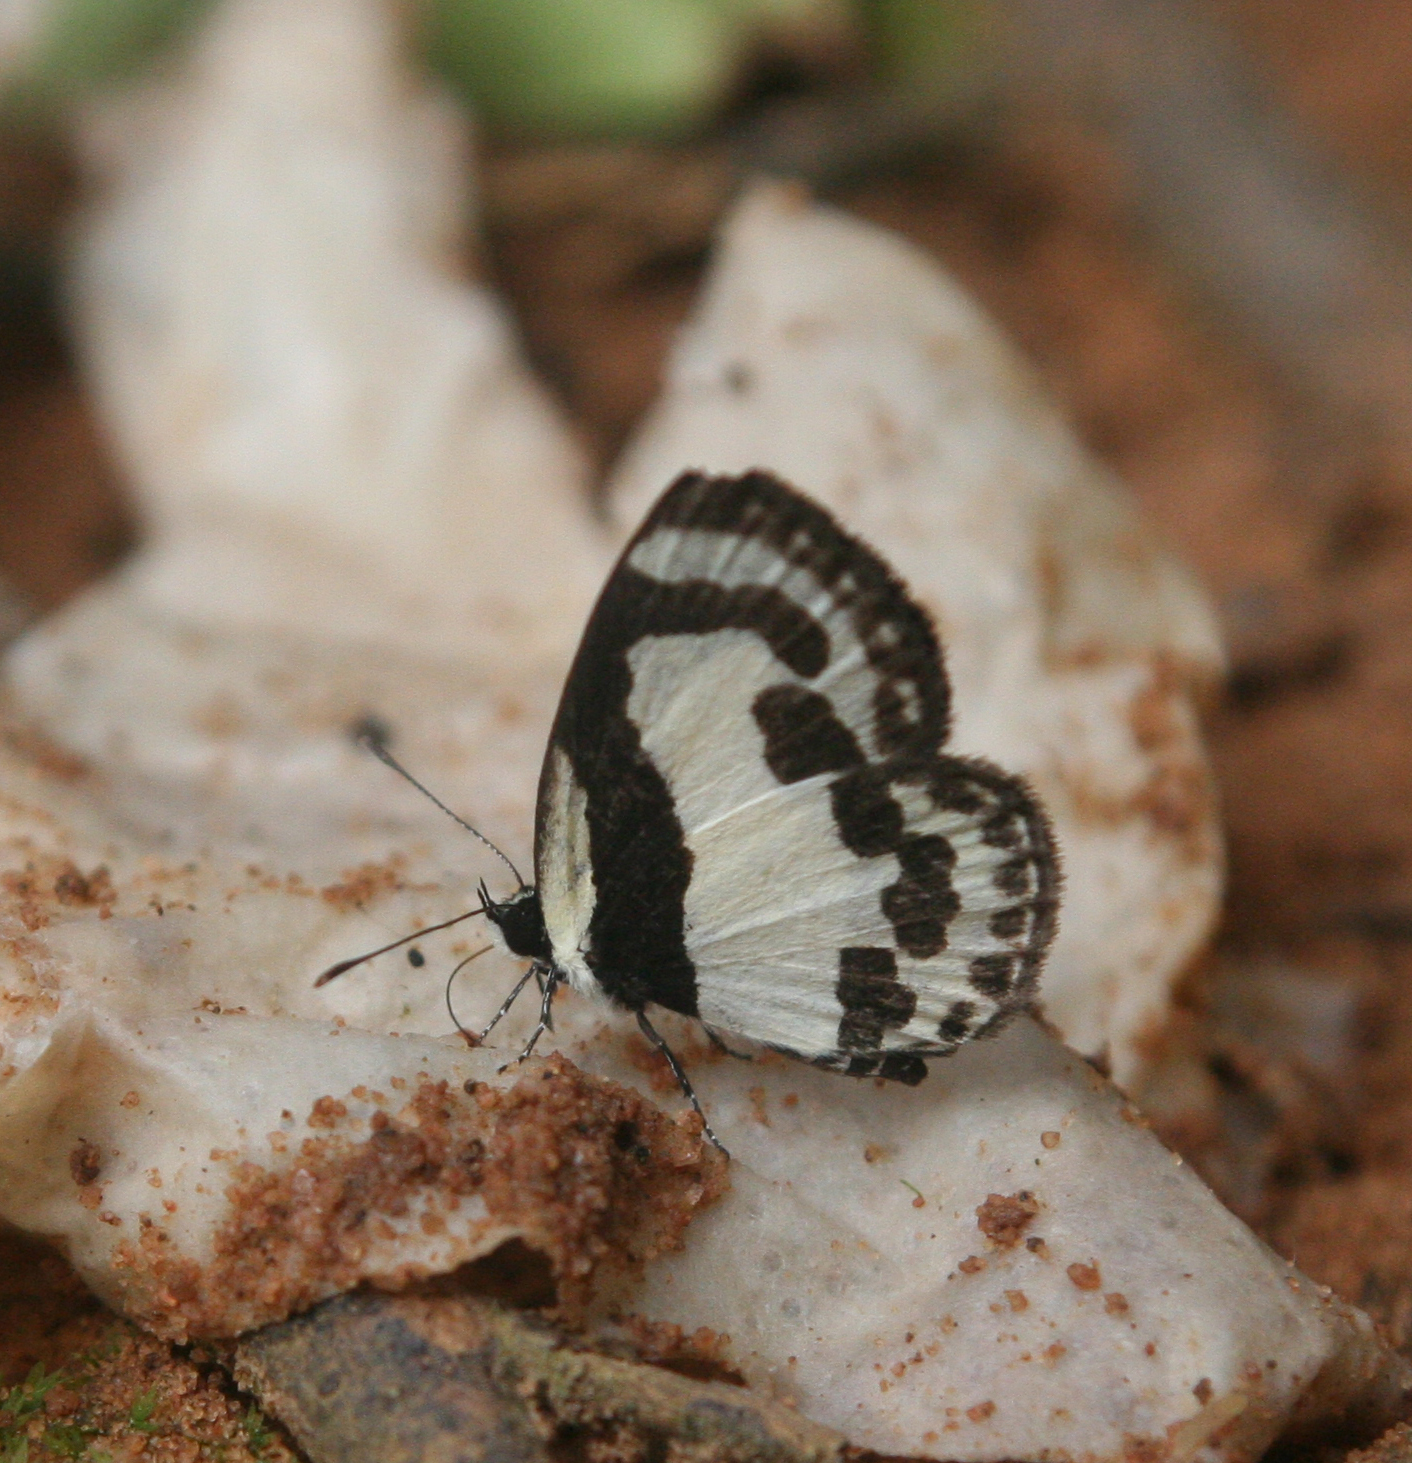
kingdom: Animalia
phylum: Arthropoda
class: Insecta
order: Lepidoptera
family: Lycaenidae
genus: Caleta
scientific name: Caleta roxus
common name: Straight pierrot
